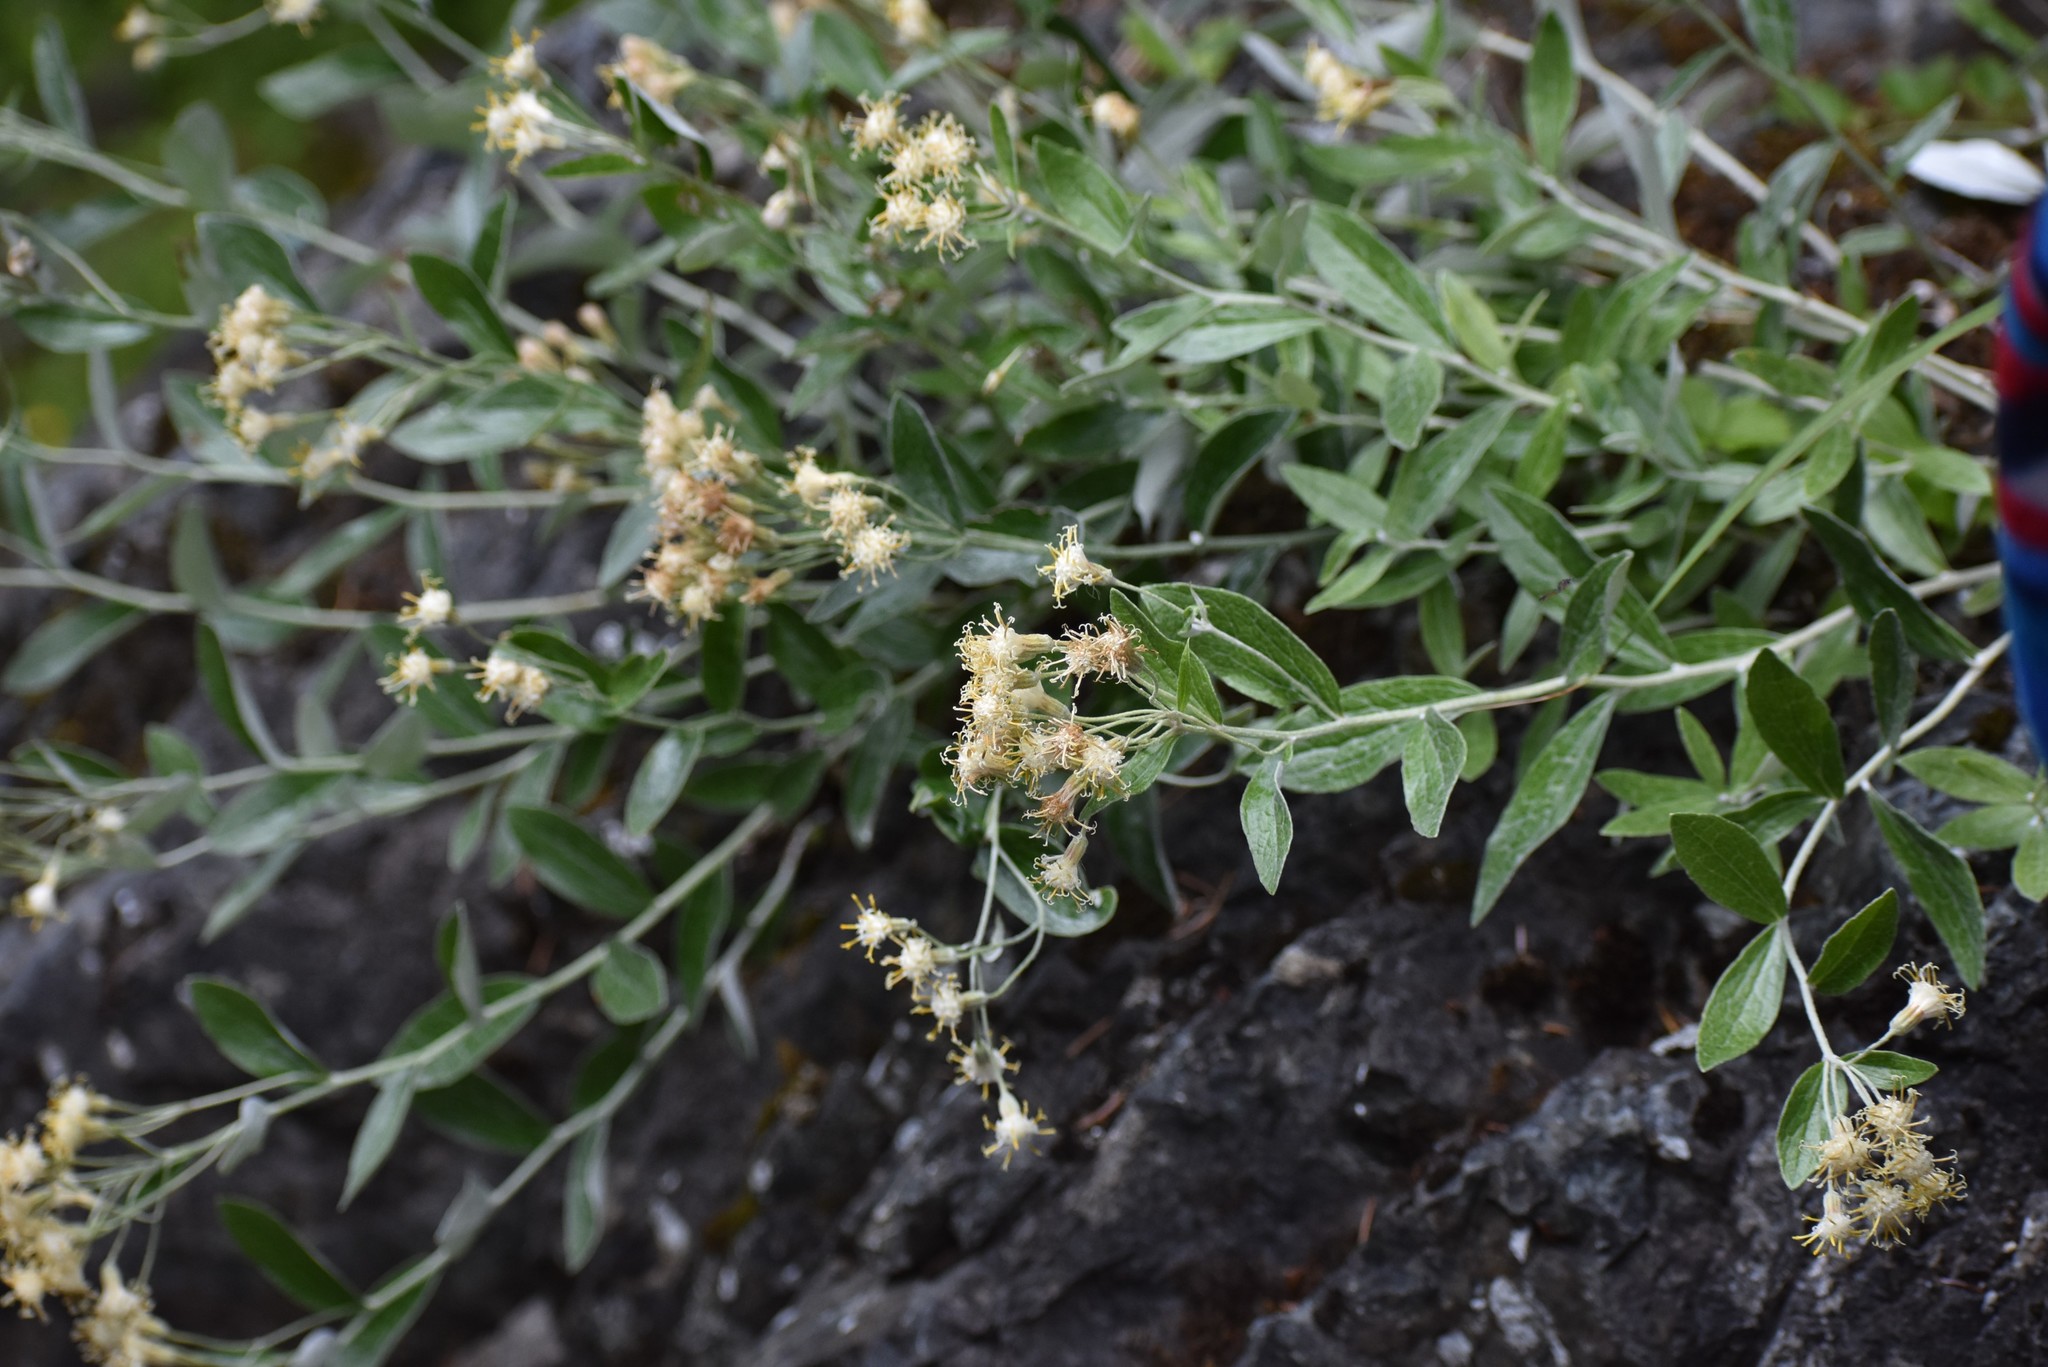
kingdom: Plantae
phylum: Tracheophyta
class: Magnoliopsida
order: Asterales
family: Asteraceae
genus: Luina
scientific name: Luina hypoleuca
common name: Little-leaved luina
